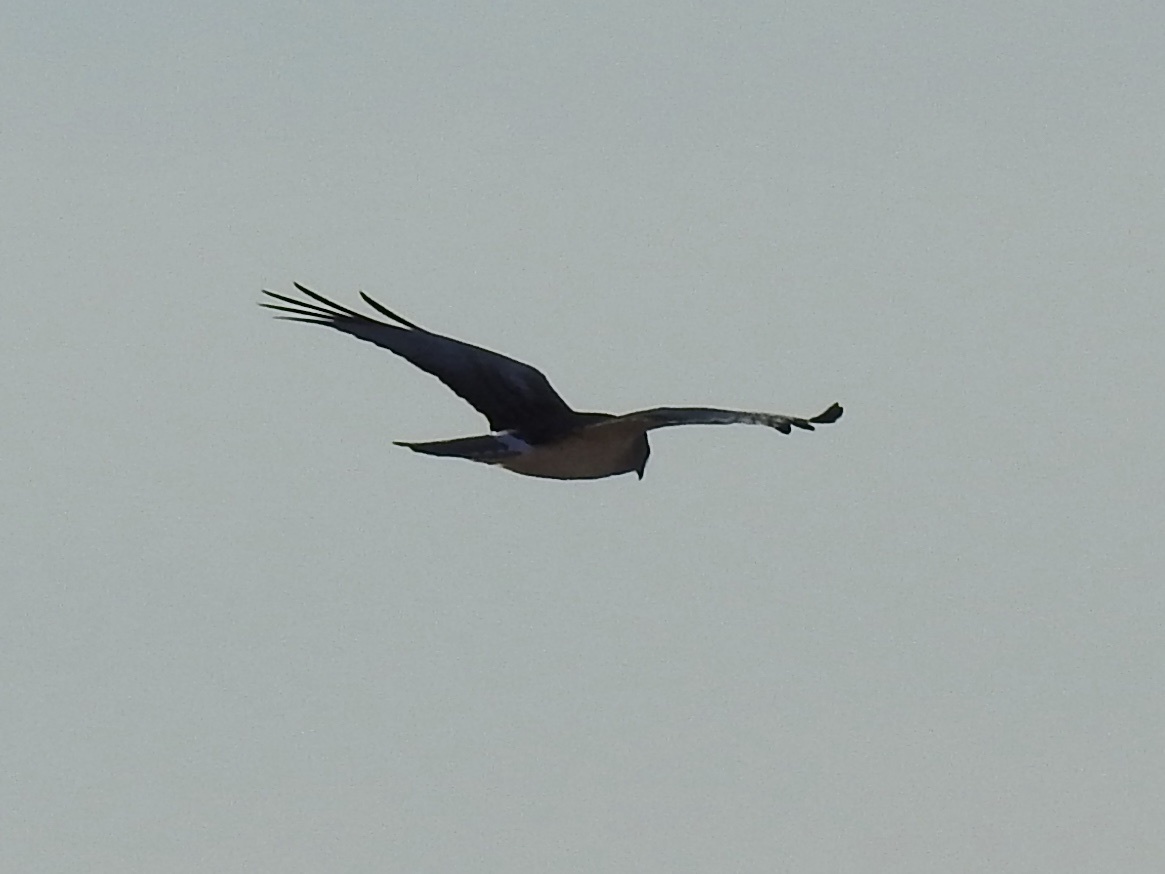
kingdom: Animalia
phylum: Chordata
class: Aves
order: Accipitriformes
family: Accipitridae
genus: Circus
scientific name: Circus cyaneus
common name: Hen harrier
